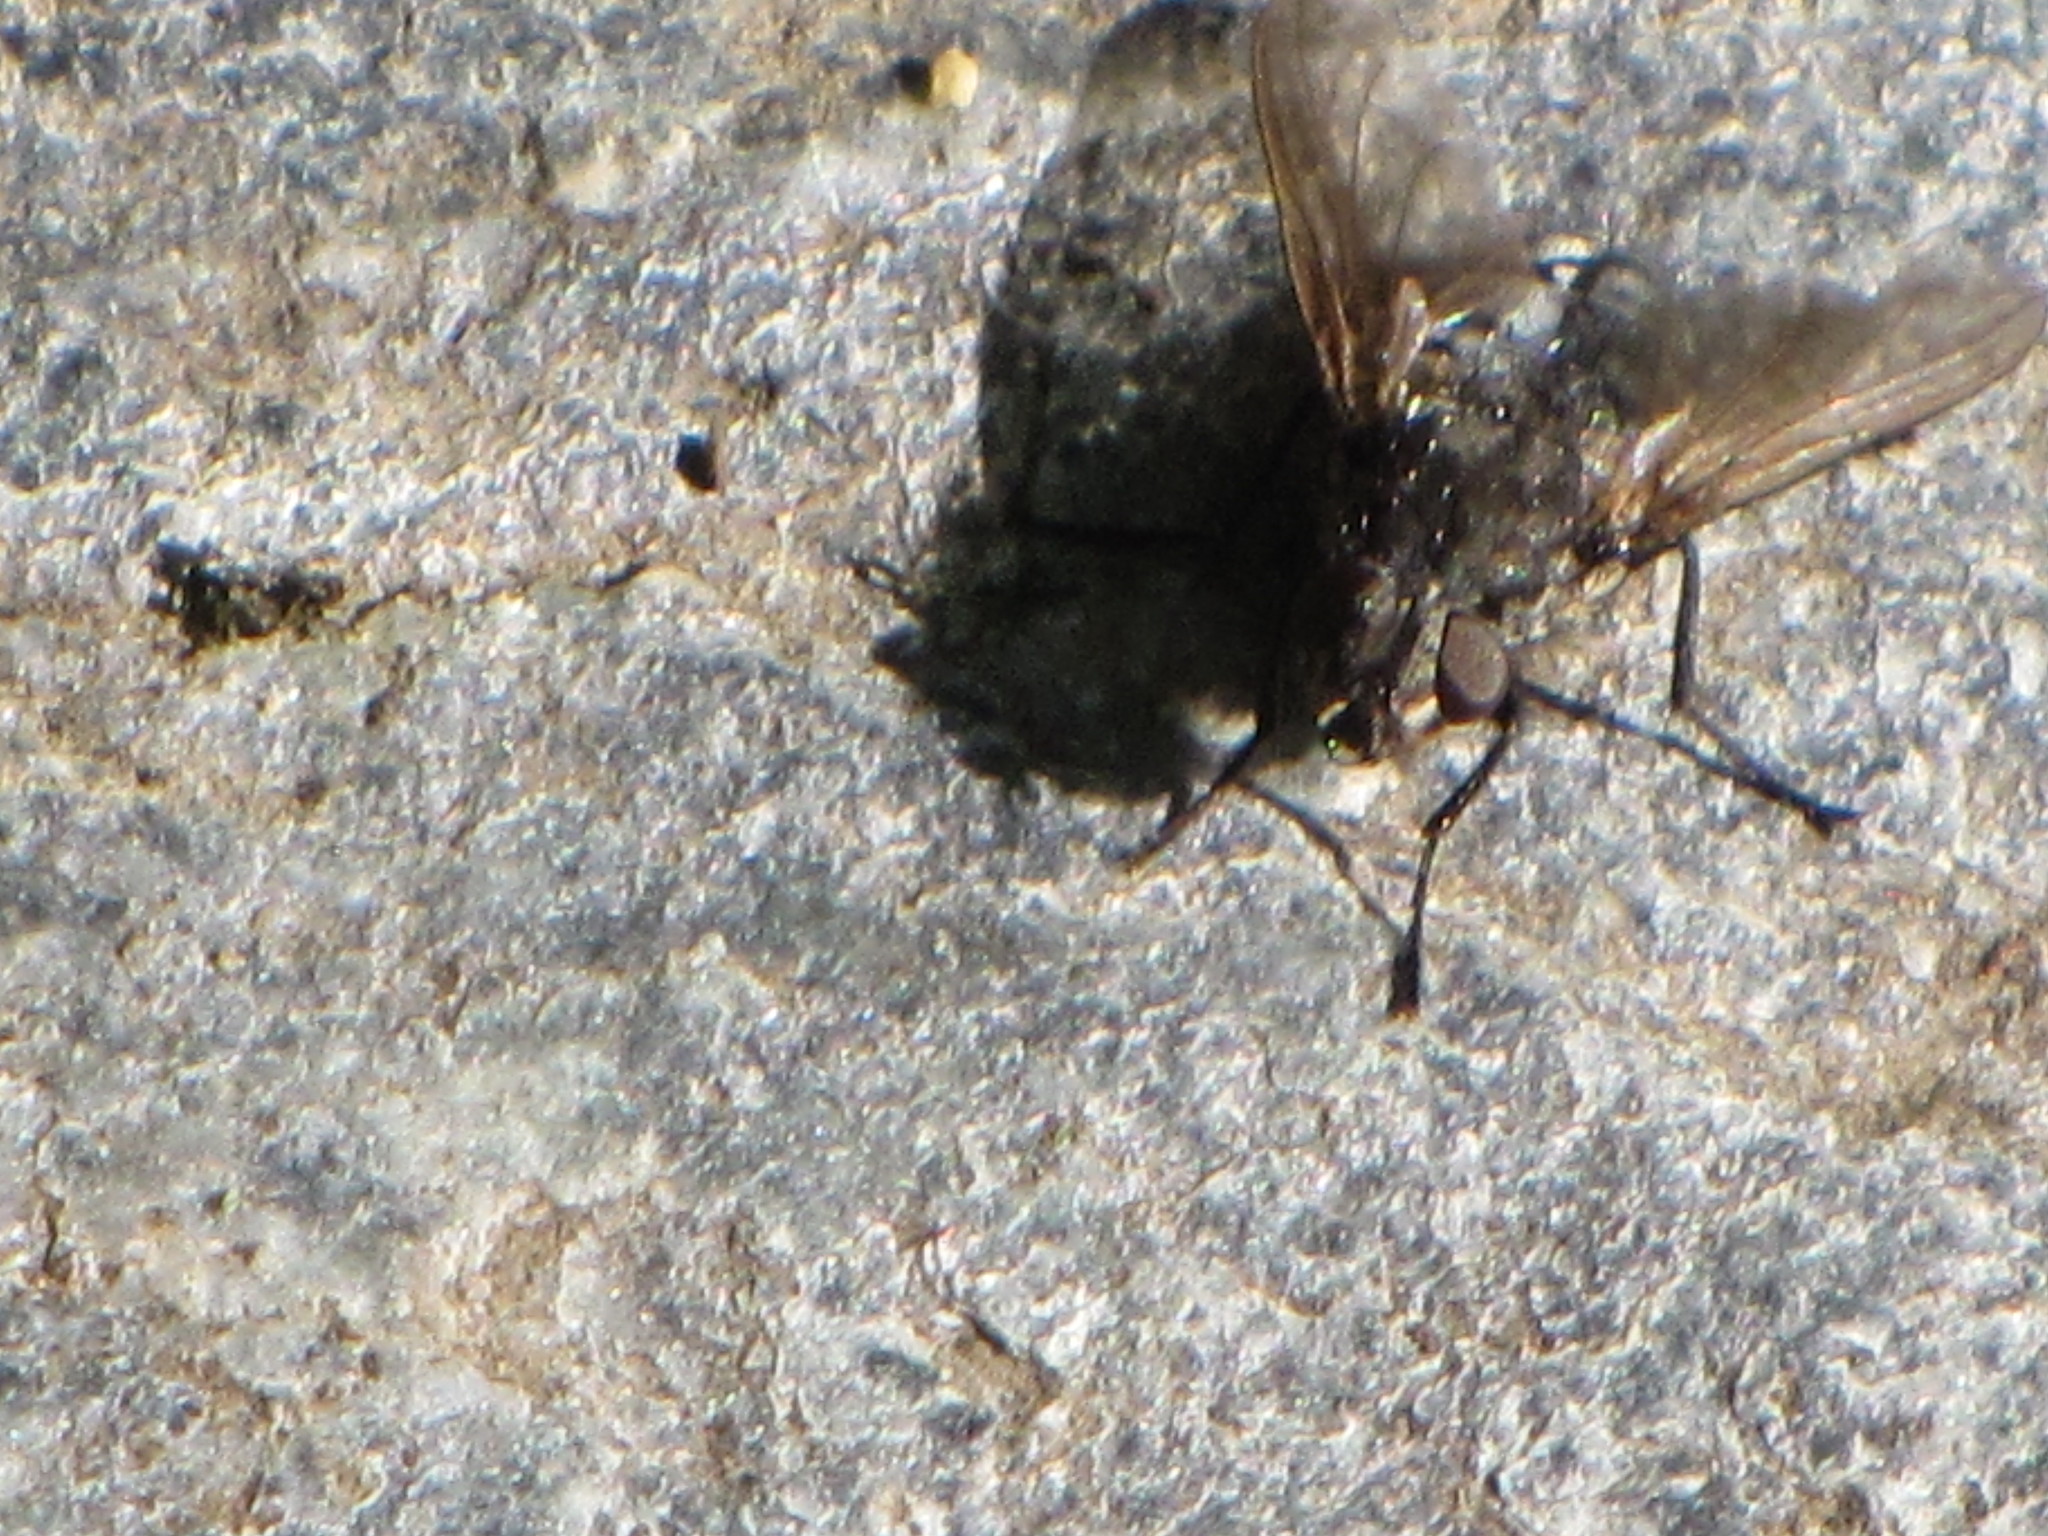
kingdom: Animalia
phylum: Arthropoda
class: Insecta
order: Diptera
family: Polleniidae
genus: Pollenia
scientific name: Pollenia vagabunda
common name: Vagabund cluster fly
